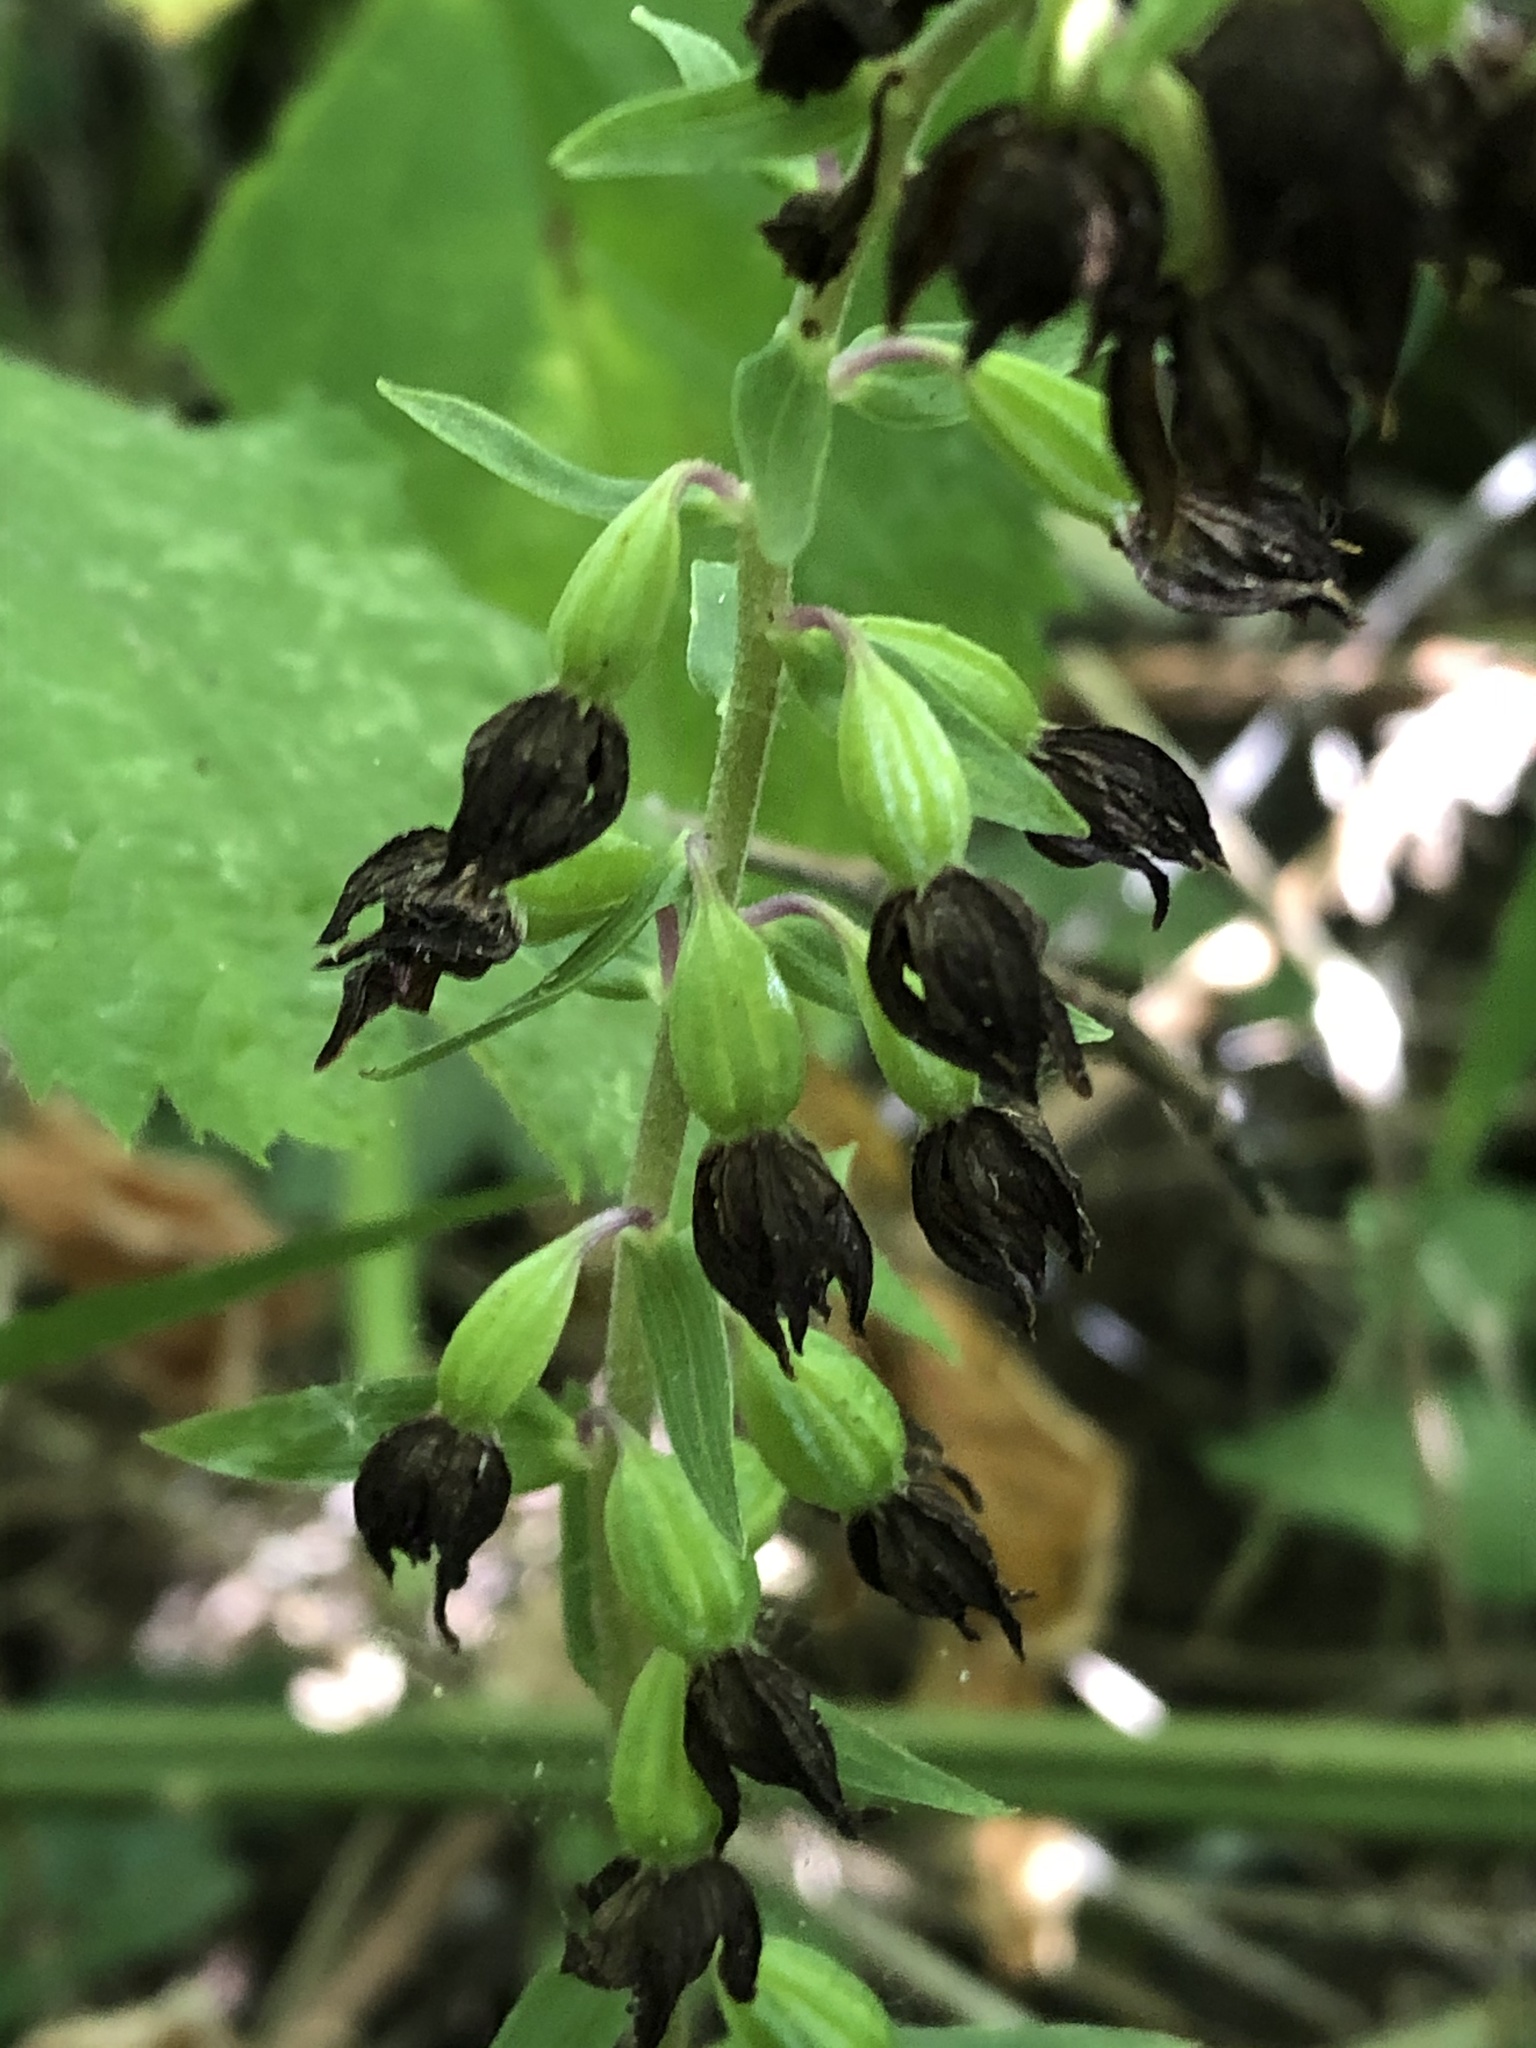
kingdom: Plantae
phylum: Tracheophyta
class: Liliopsida
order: Asparagales
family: Orchidaceae
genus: Epipactis
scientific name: Epipactis helleborine
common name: Broad-leaved helleborine
